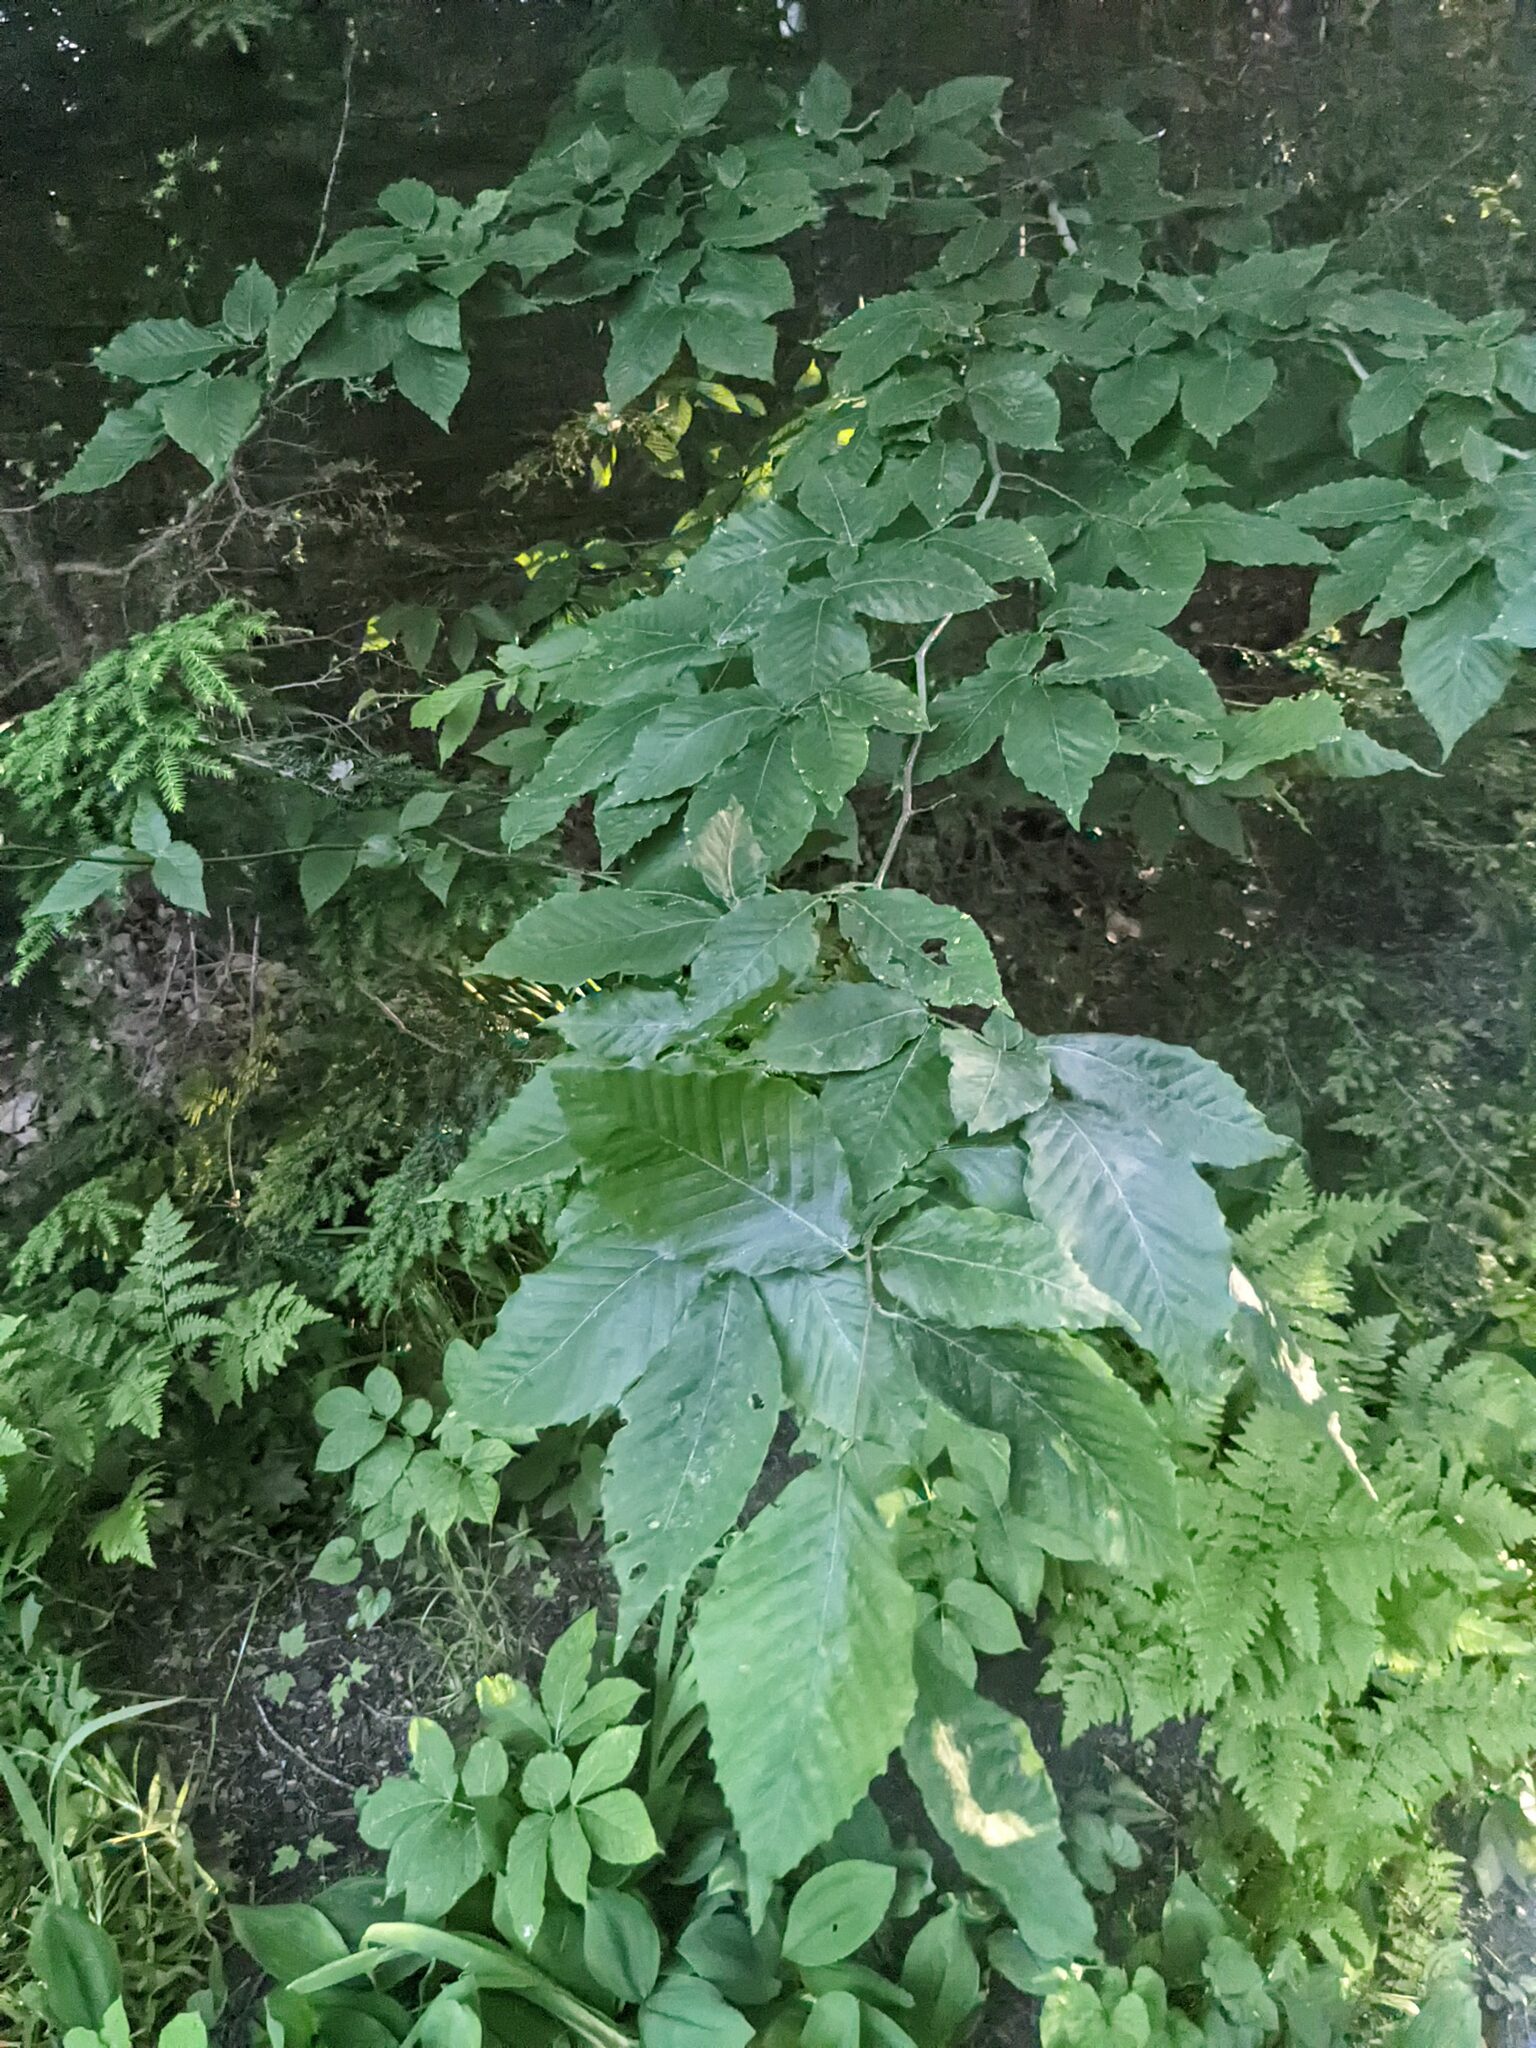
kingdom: Plantae
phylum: Tracheophyta
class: Magnoliopsida
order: Fagales
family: Fagaceae
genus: Fagus
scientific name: Fagus grandifolia
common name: American beech
